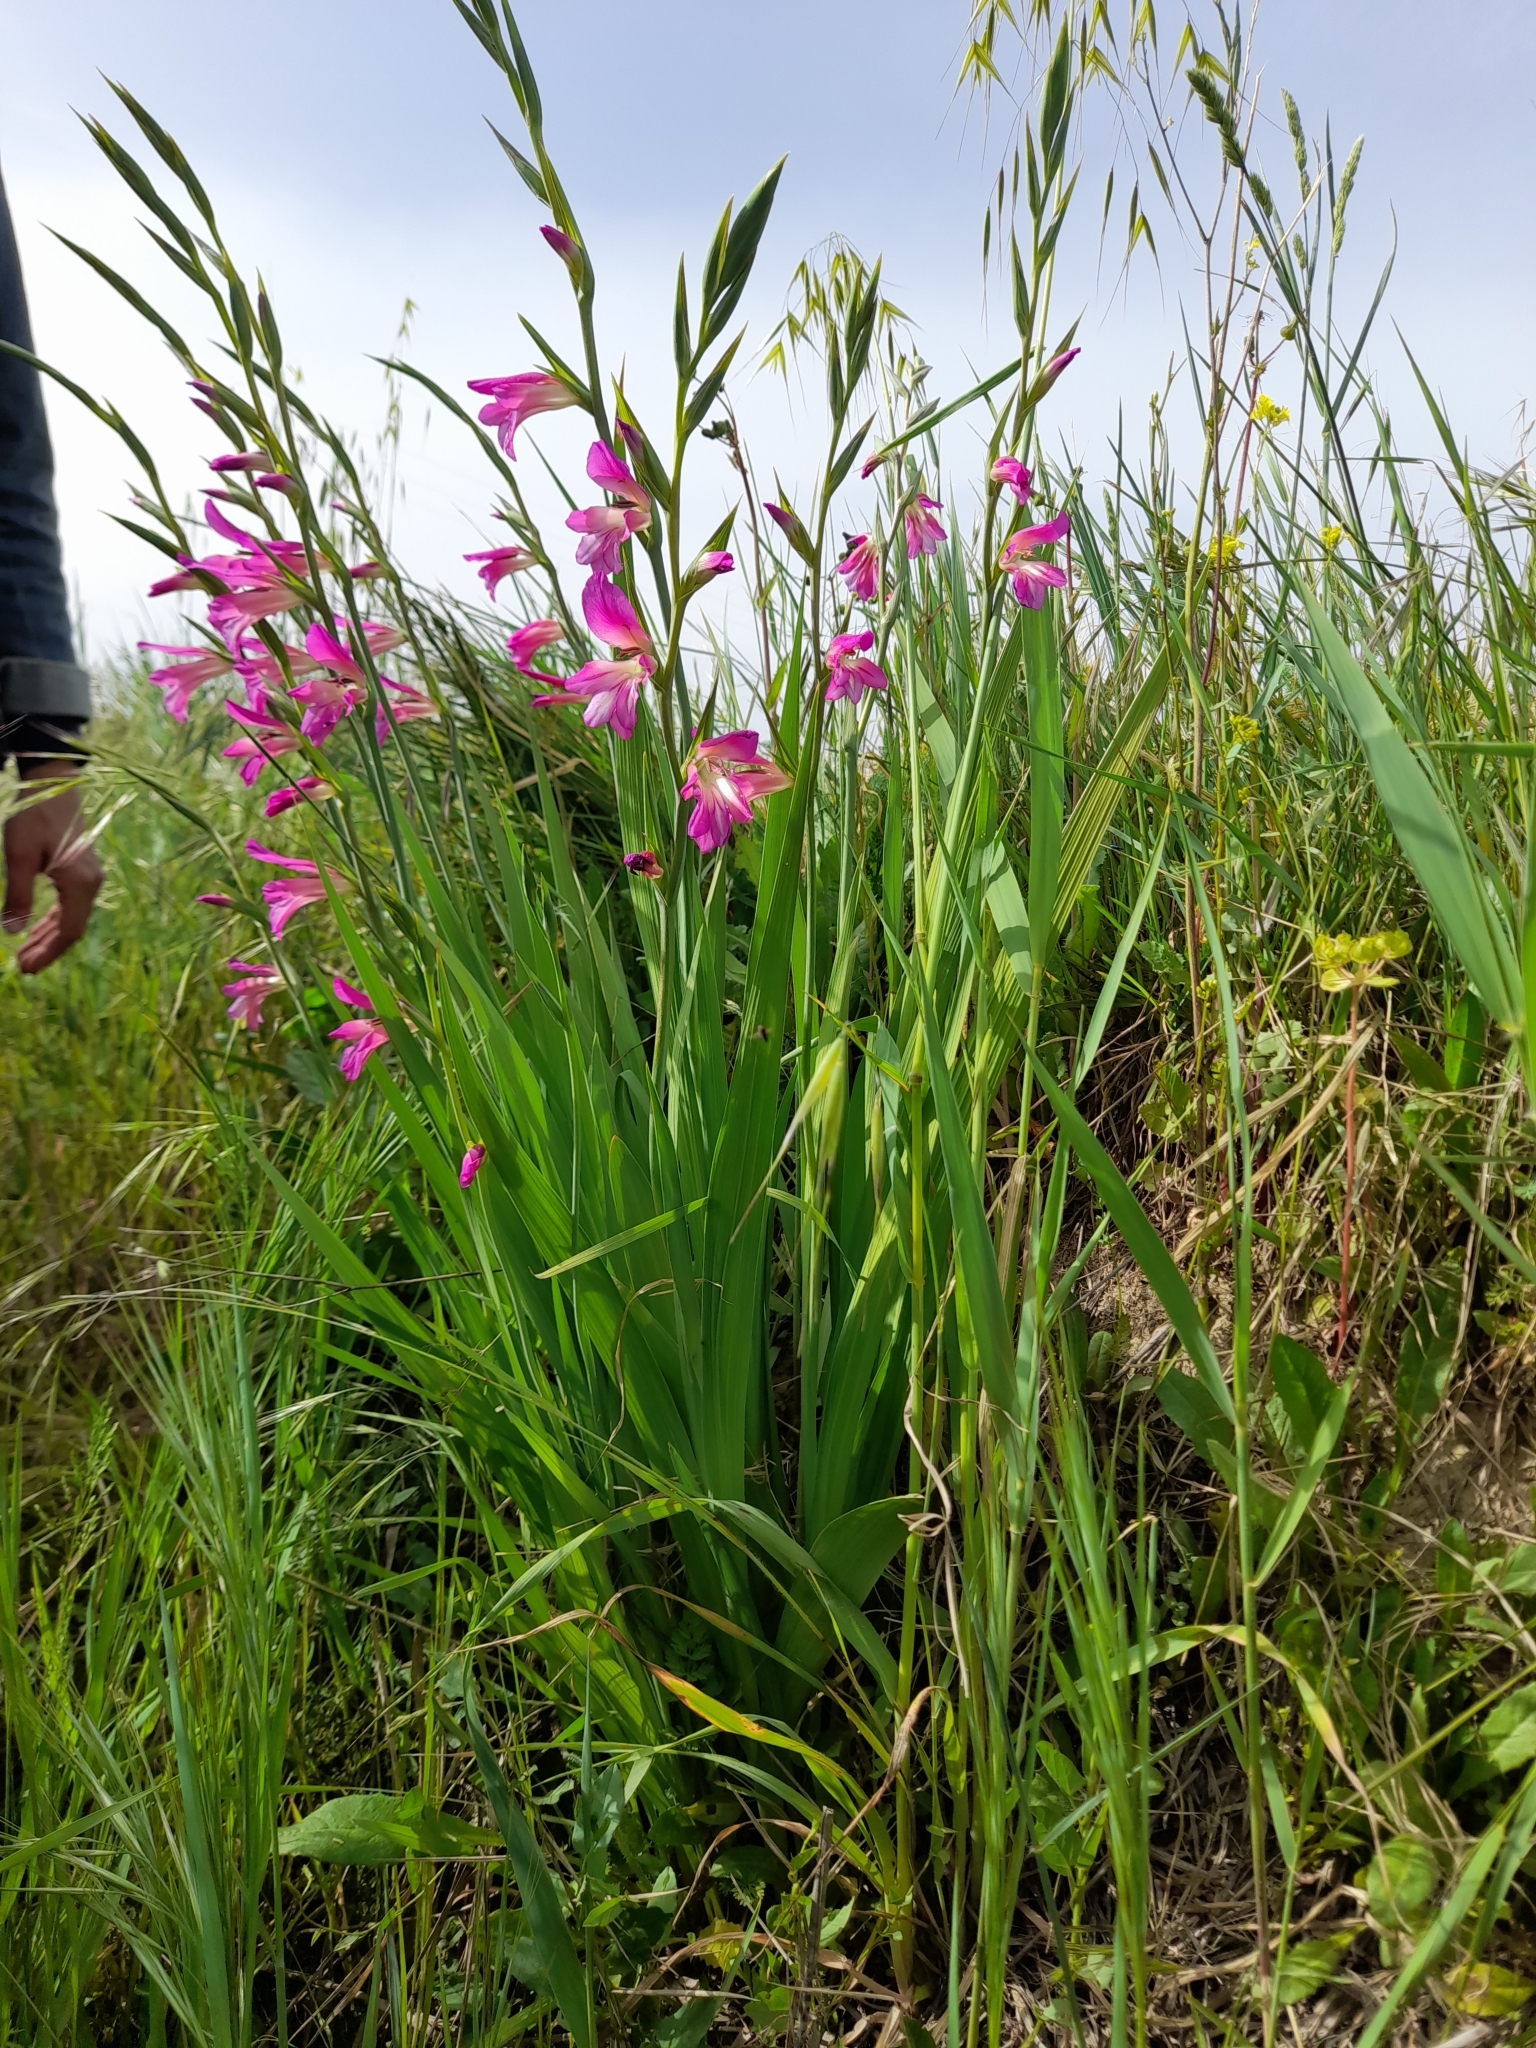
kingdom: Plantae
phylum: Tracheophyta
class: Liliopsida
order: Asparagales
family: Iridaceae
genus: Gladiolus
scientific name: Gladiolus italicus
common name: Field gladiolus
